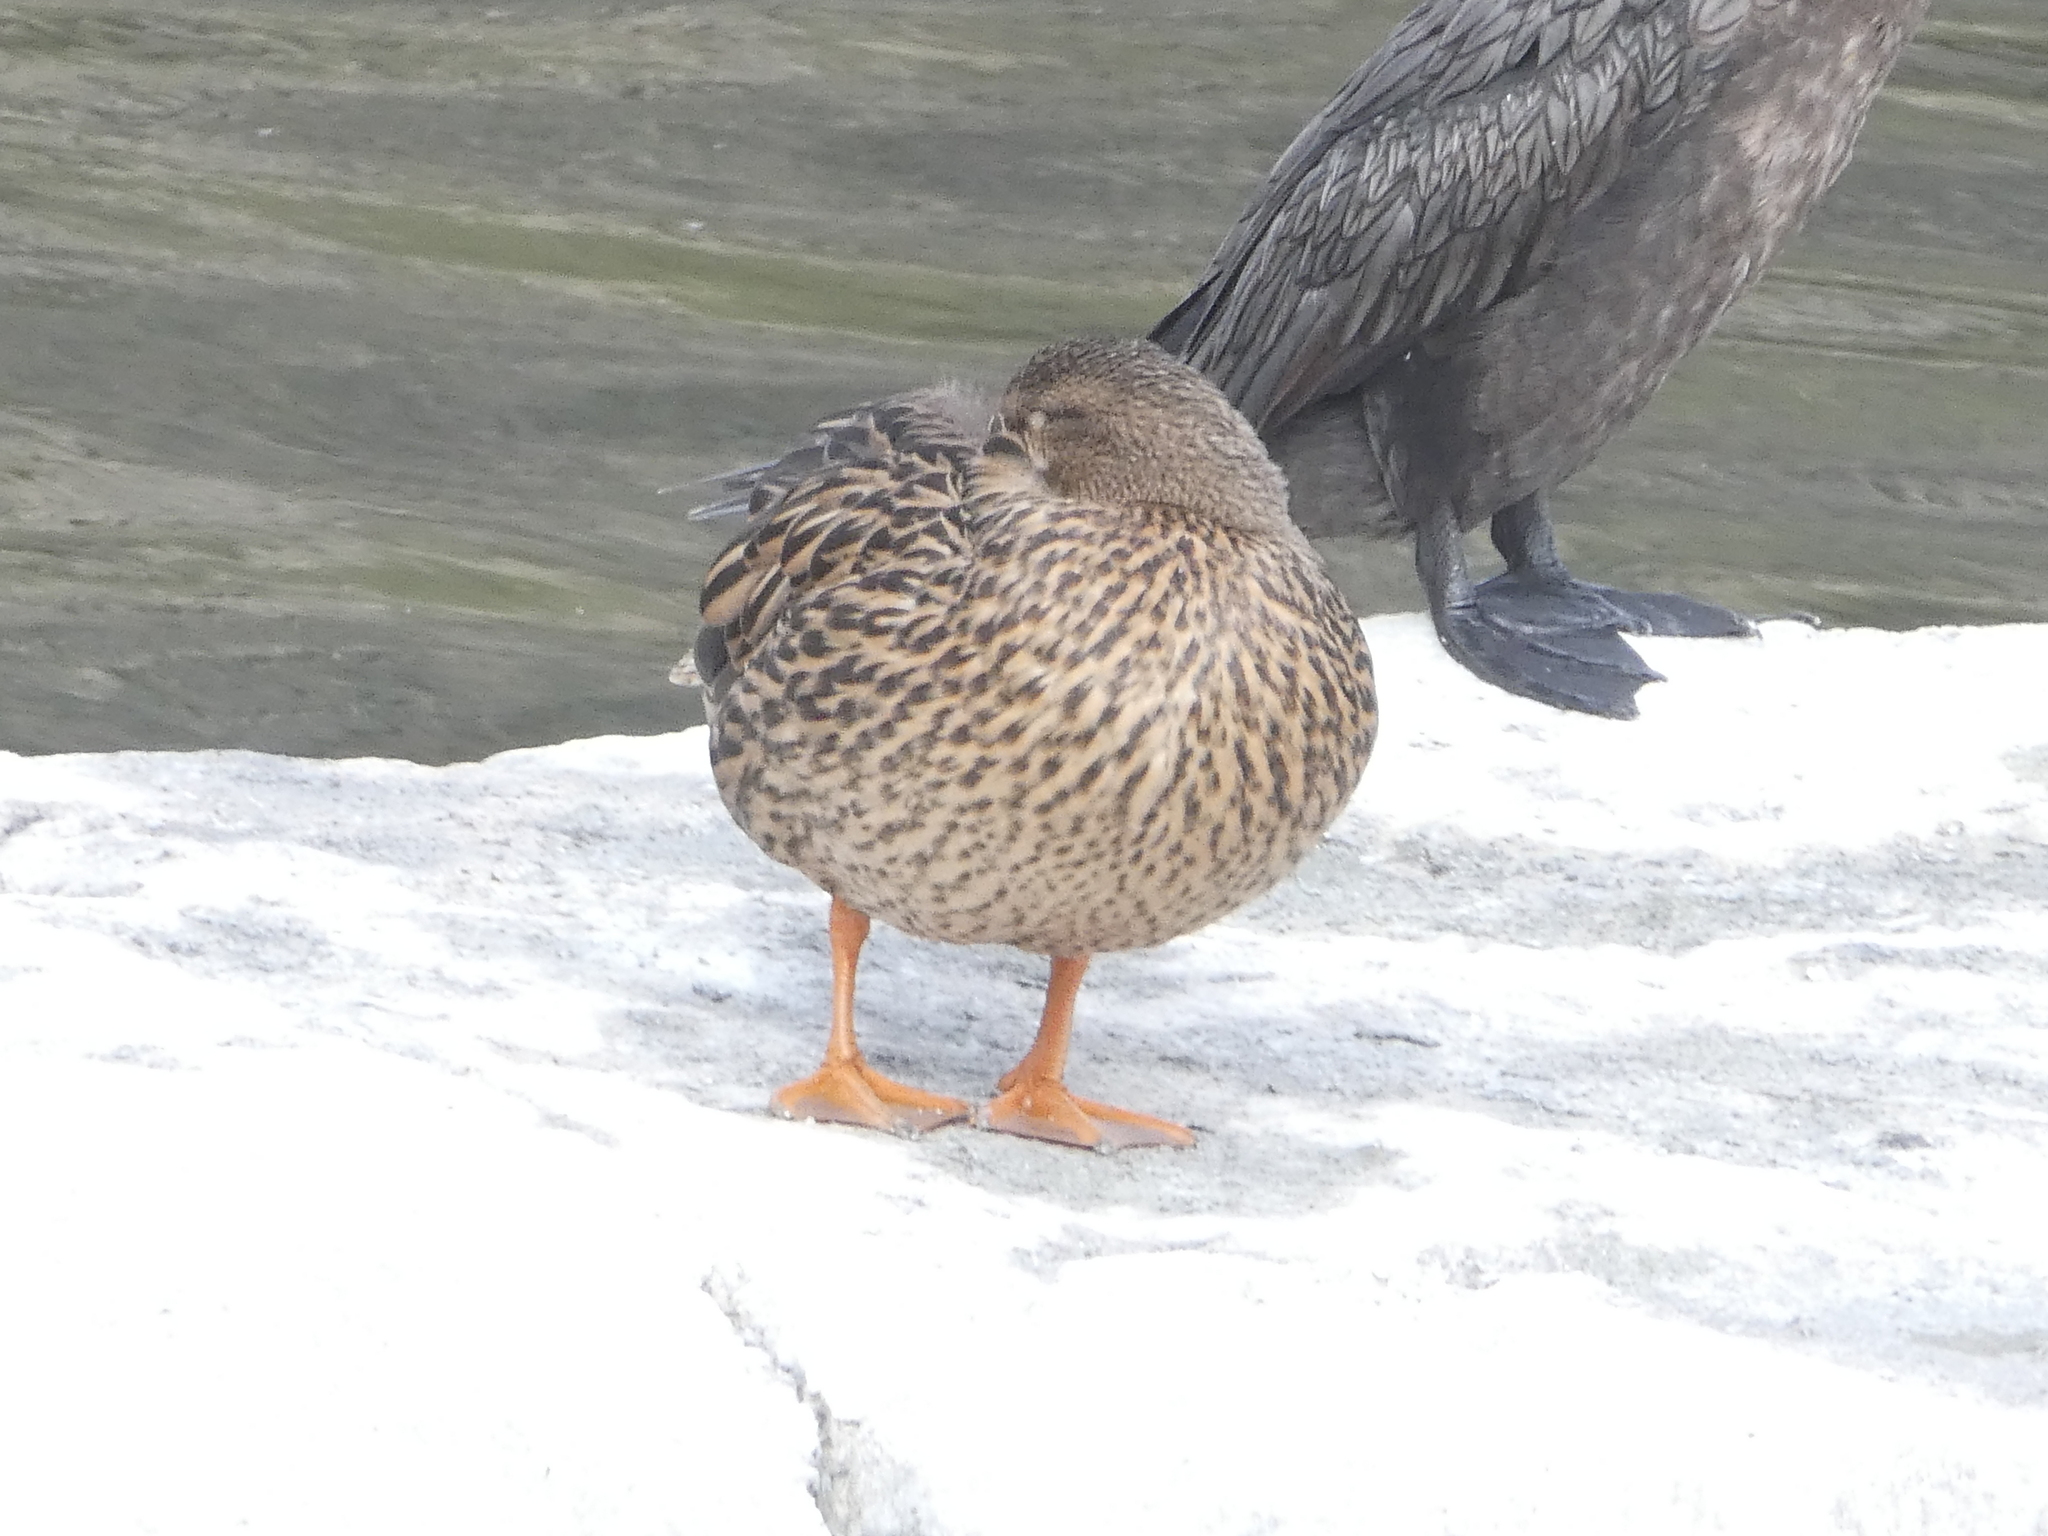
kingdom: Animalia
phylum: Chordata
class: Aves
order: Anseriformes
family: Anatidae
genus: Anas
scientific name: Anas platyrhynchos
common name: Mallard
